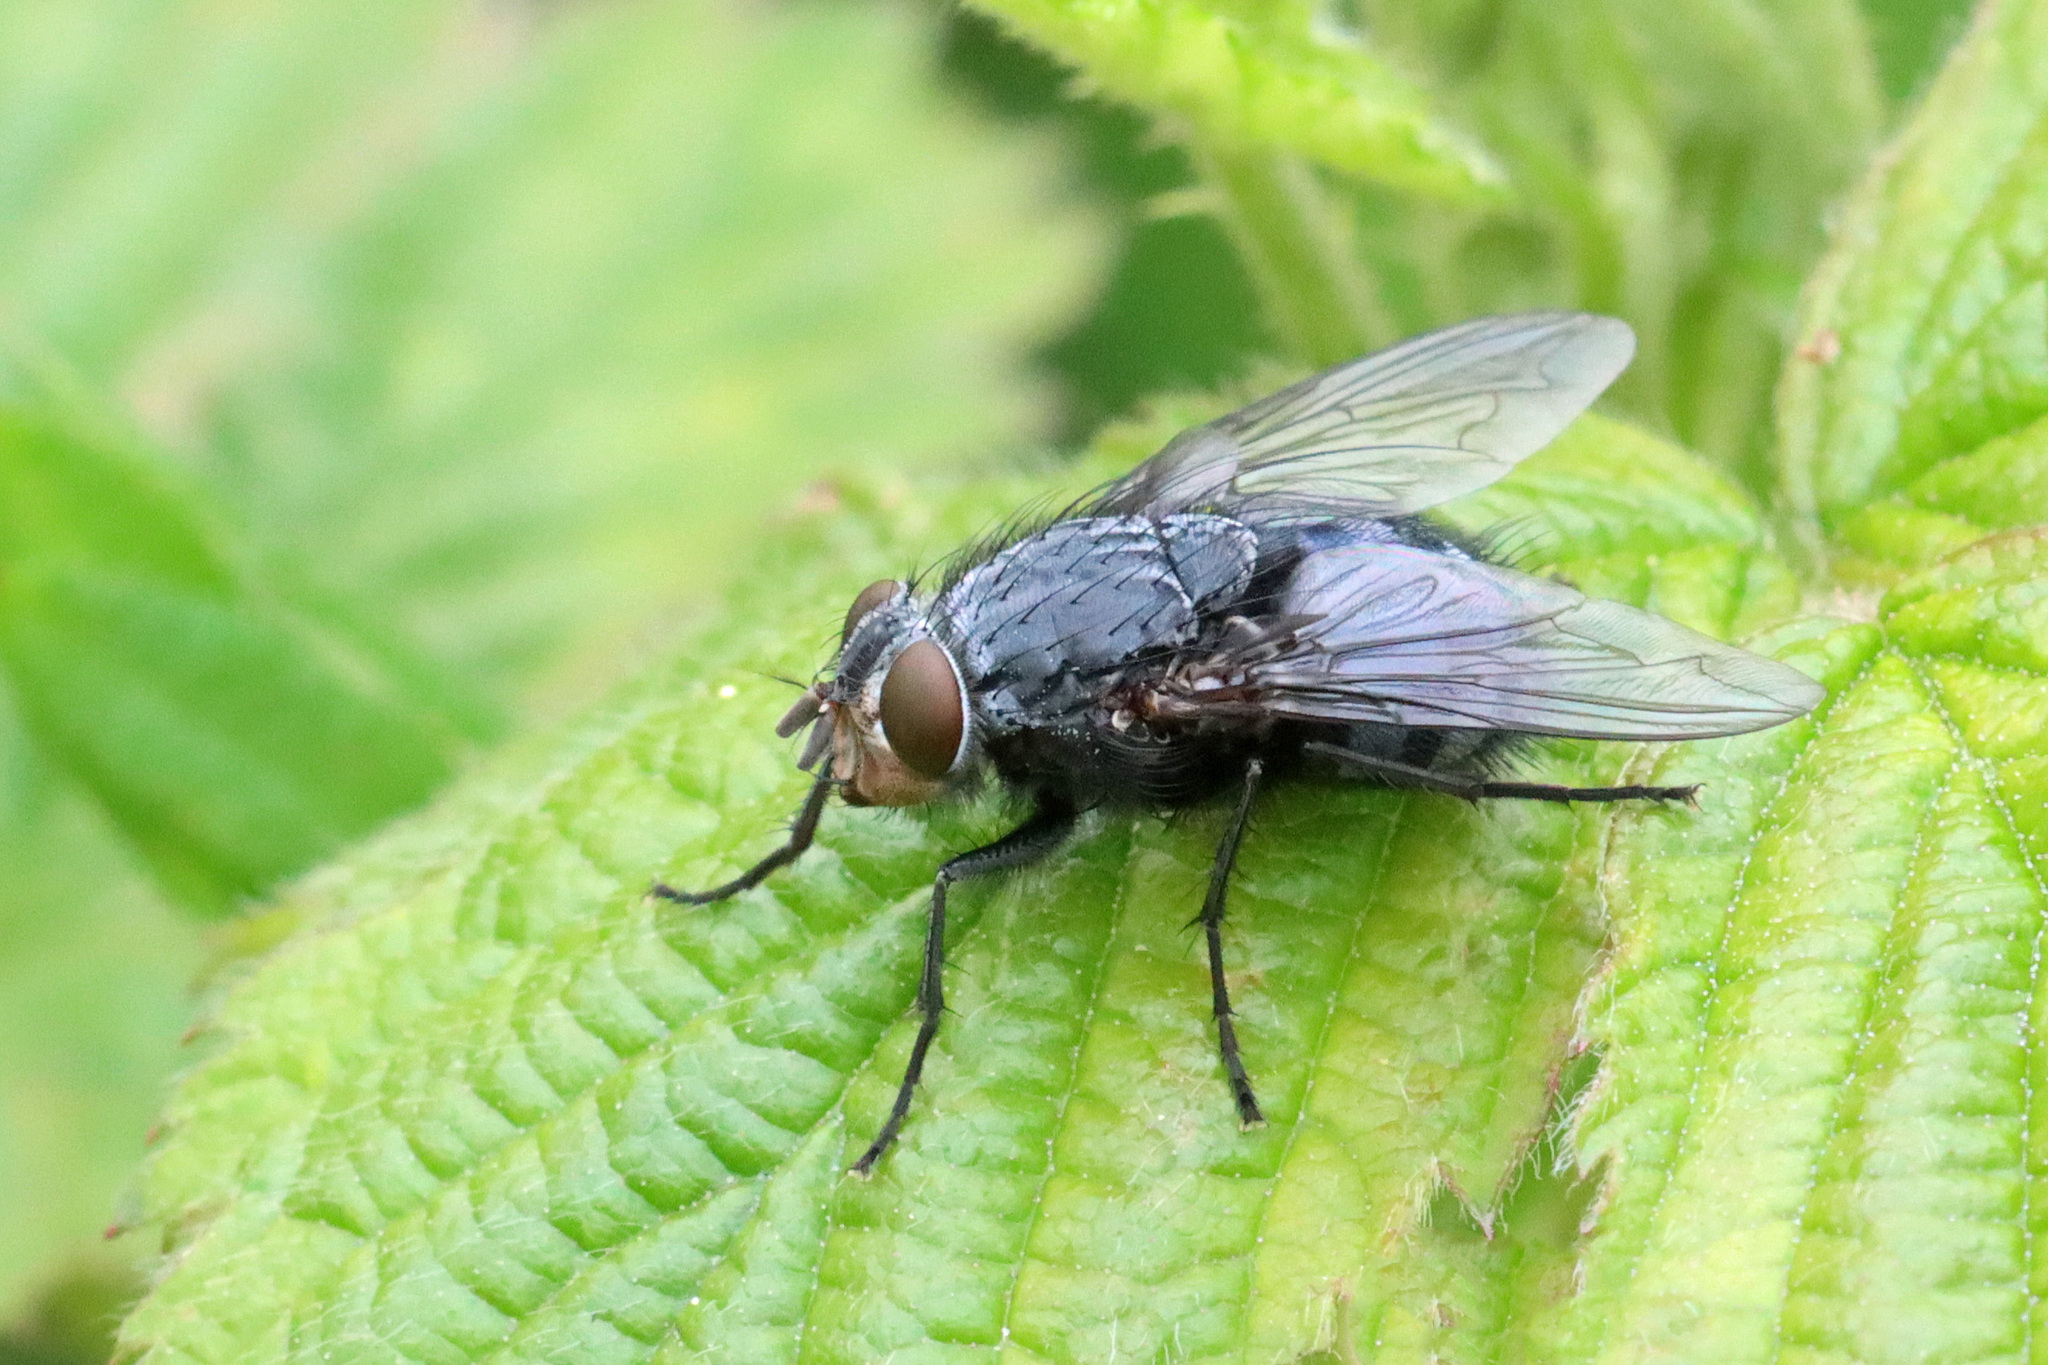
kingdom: Animalia
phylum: Arthropoda
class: Insecta
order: Diptera
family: Calliphoridae
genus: Calliphora
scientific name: Calliphora vicina
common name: Common blow flie
